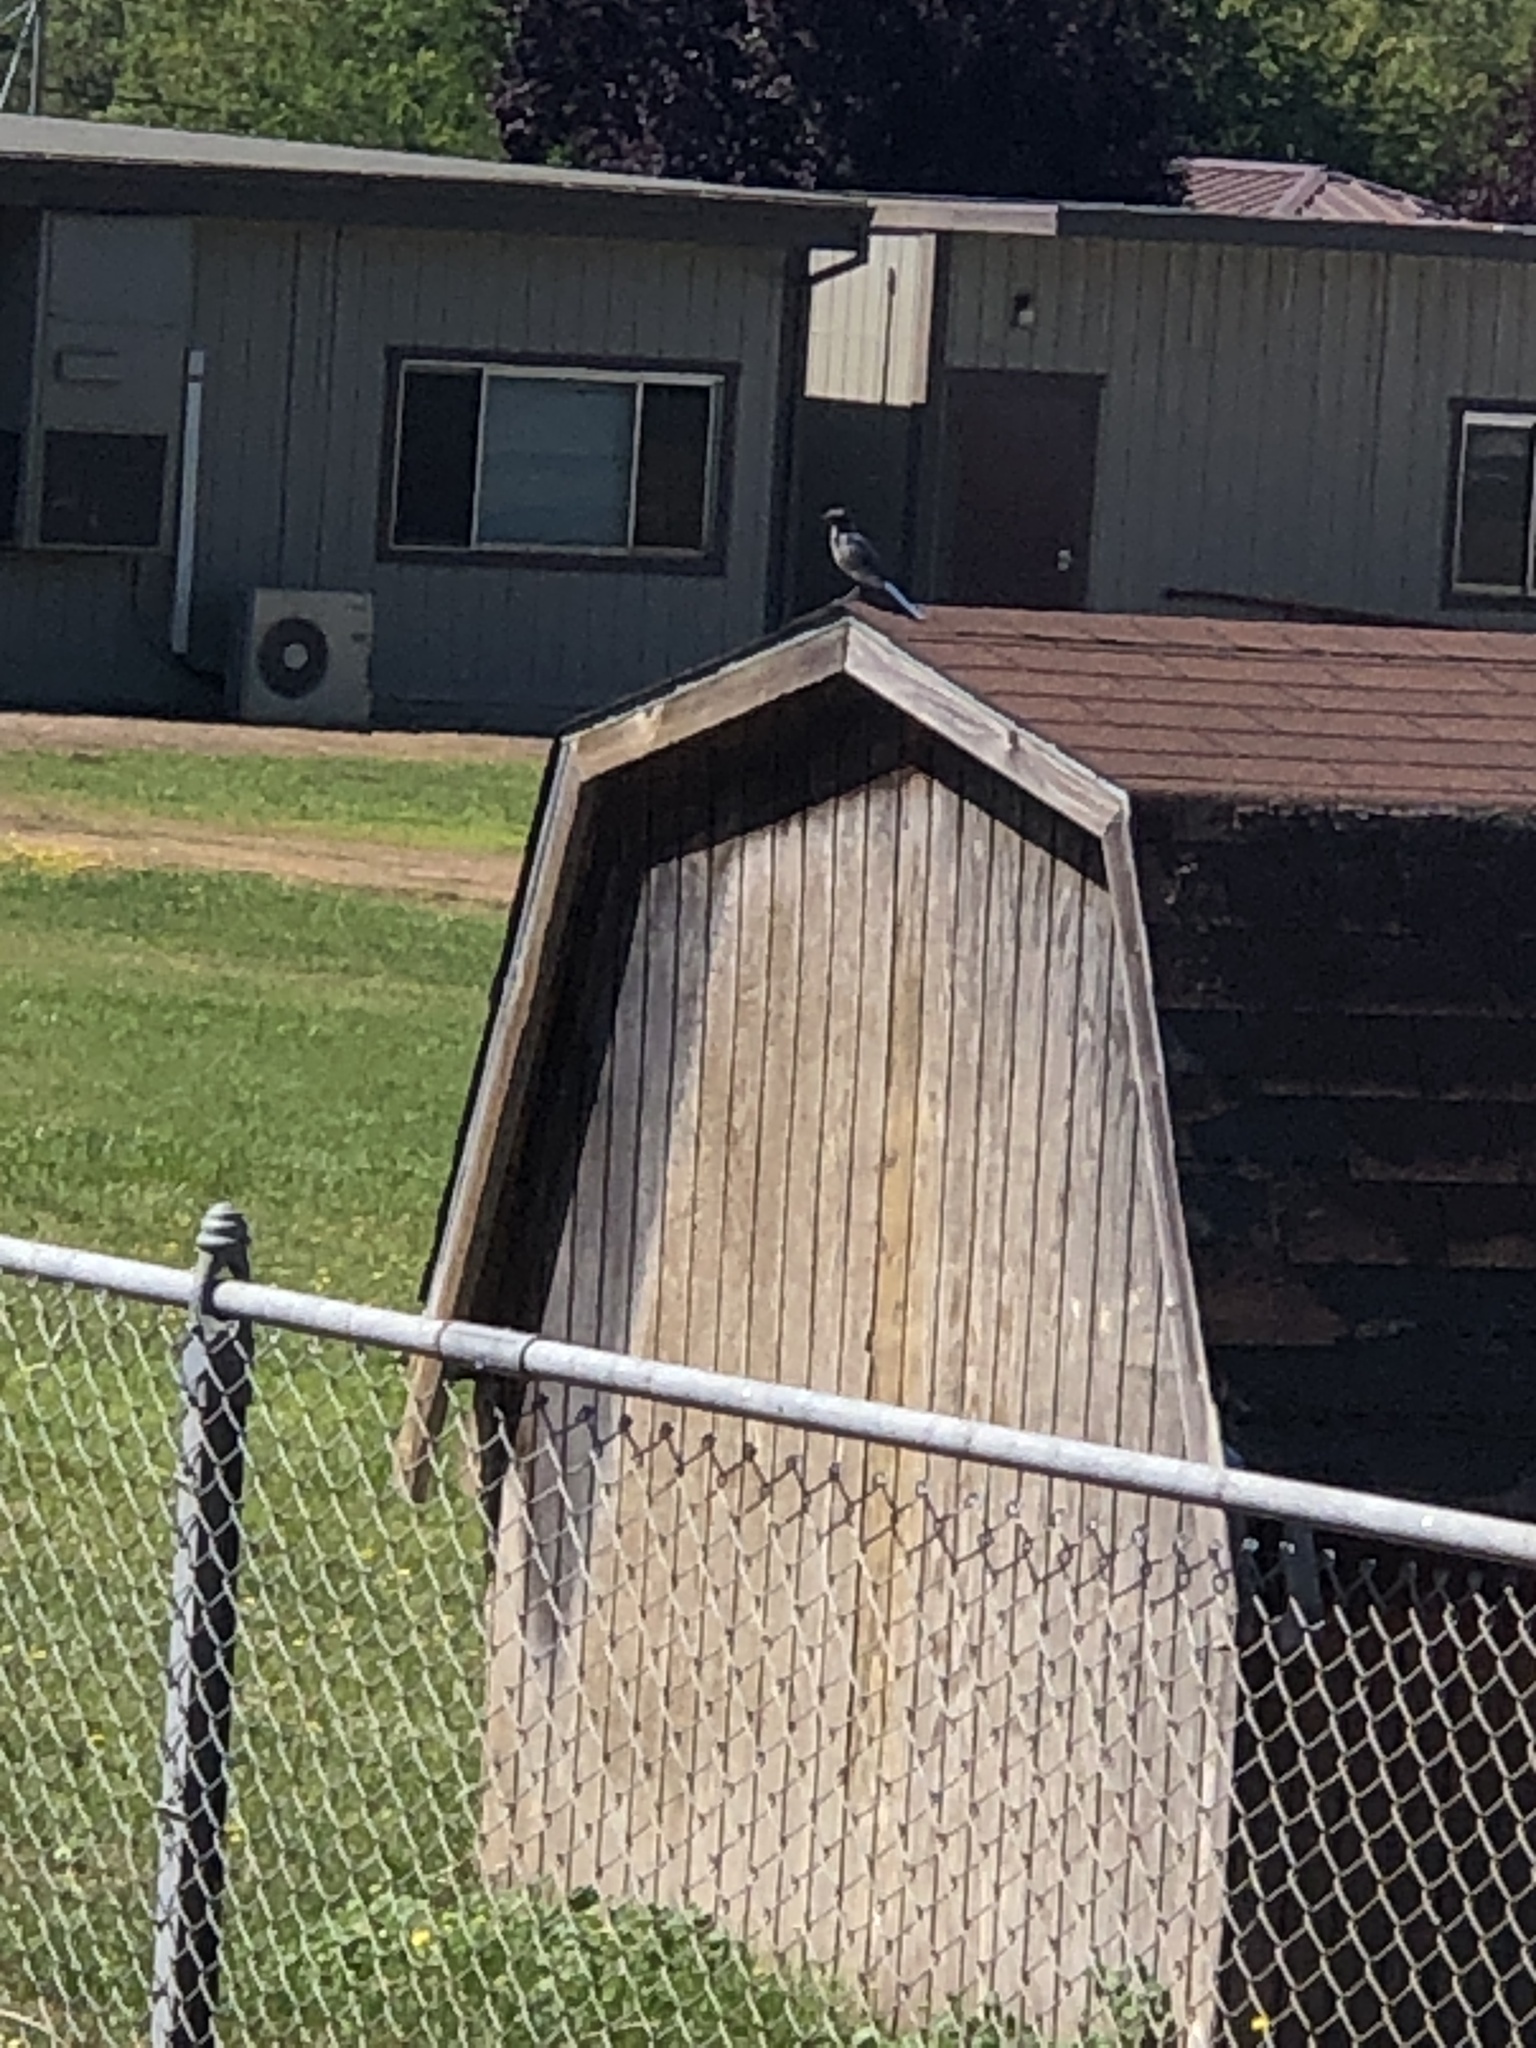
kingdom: Animalia
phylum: Chordata
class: Aves
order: Passeriformes
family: Corvidae
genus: Aphelocoma
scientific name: Aphelocoma californica
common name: California scrub-jay
